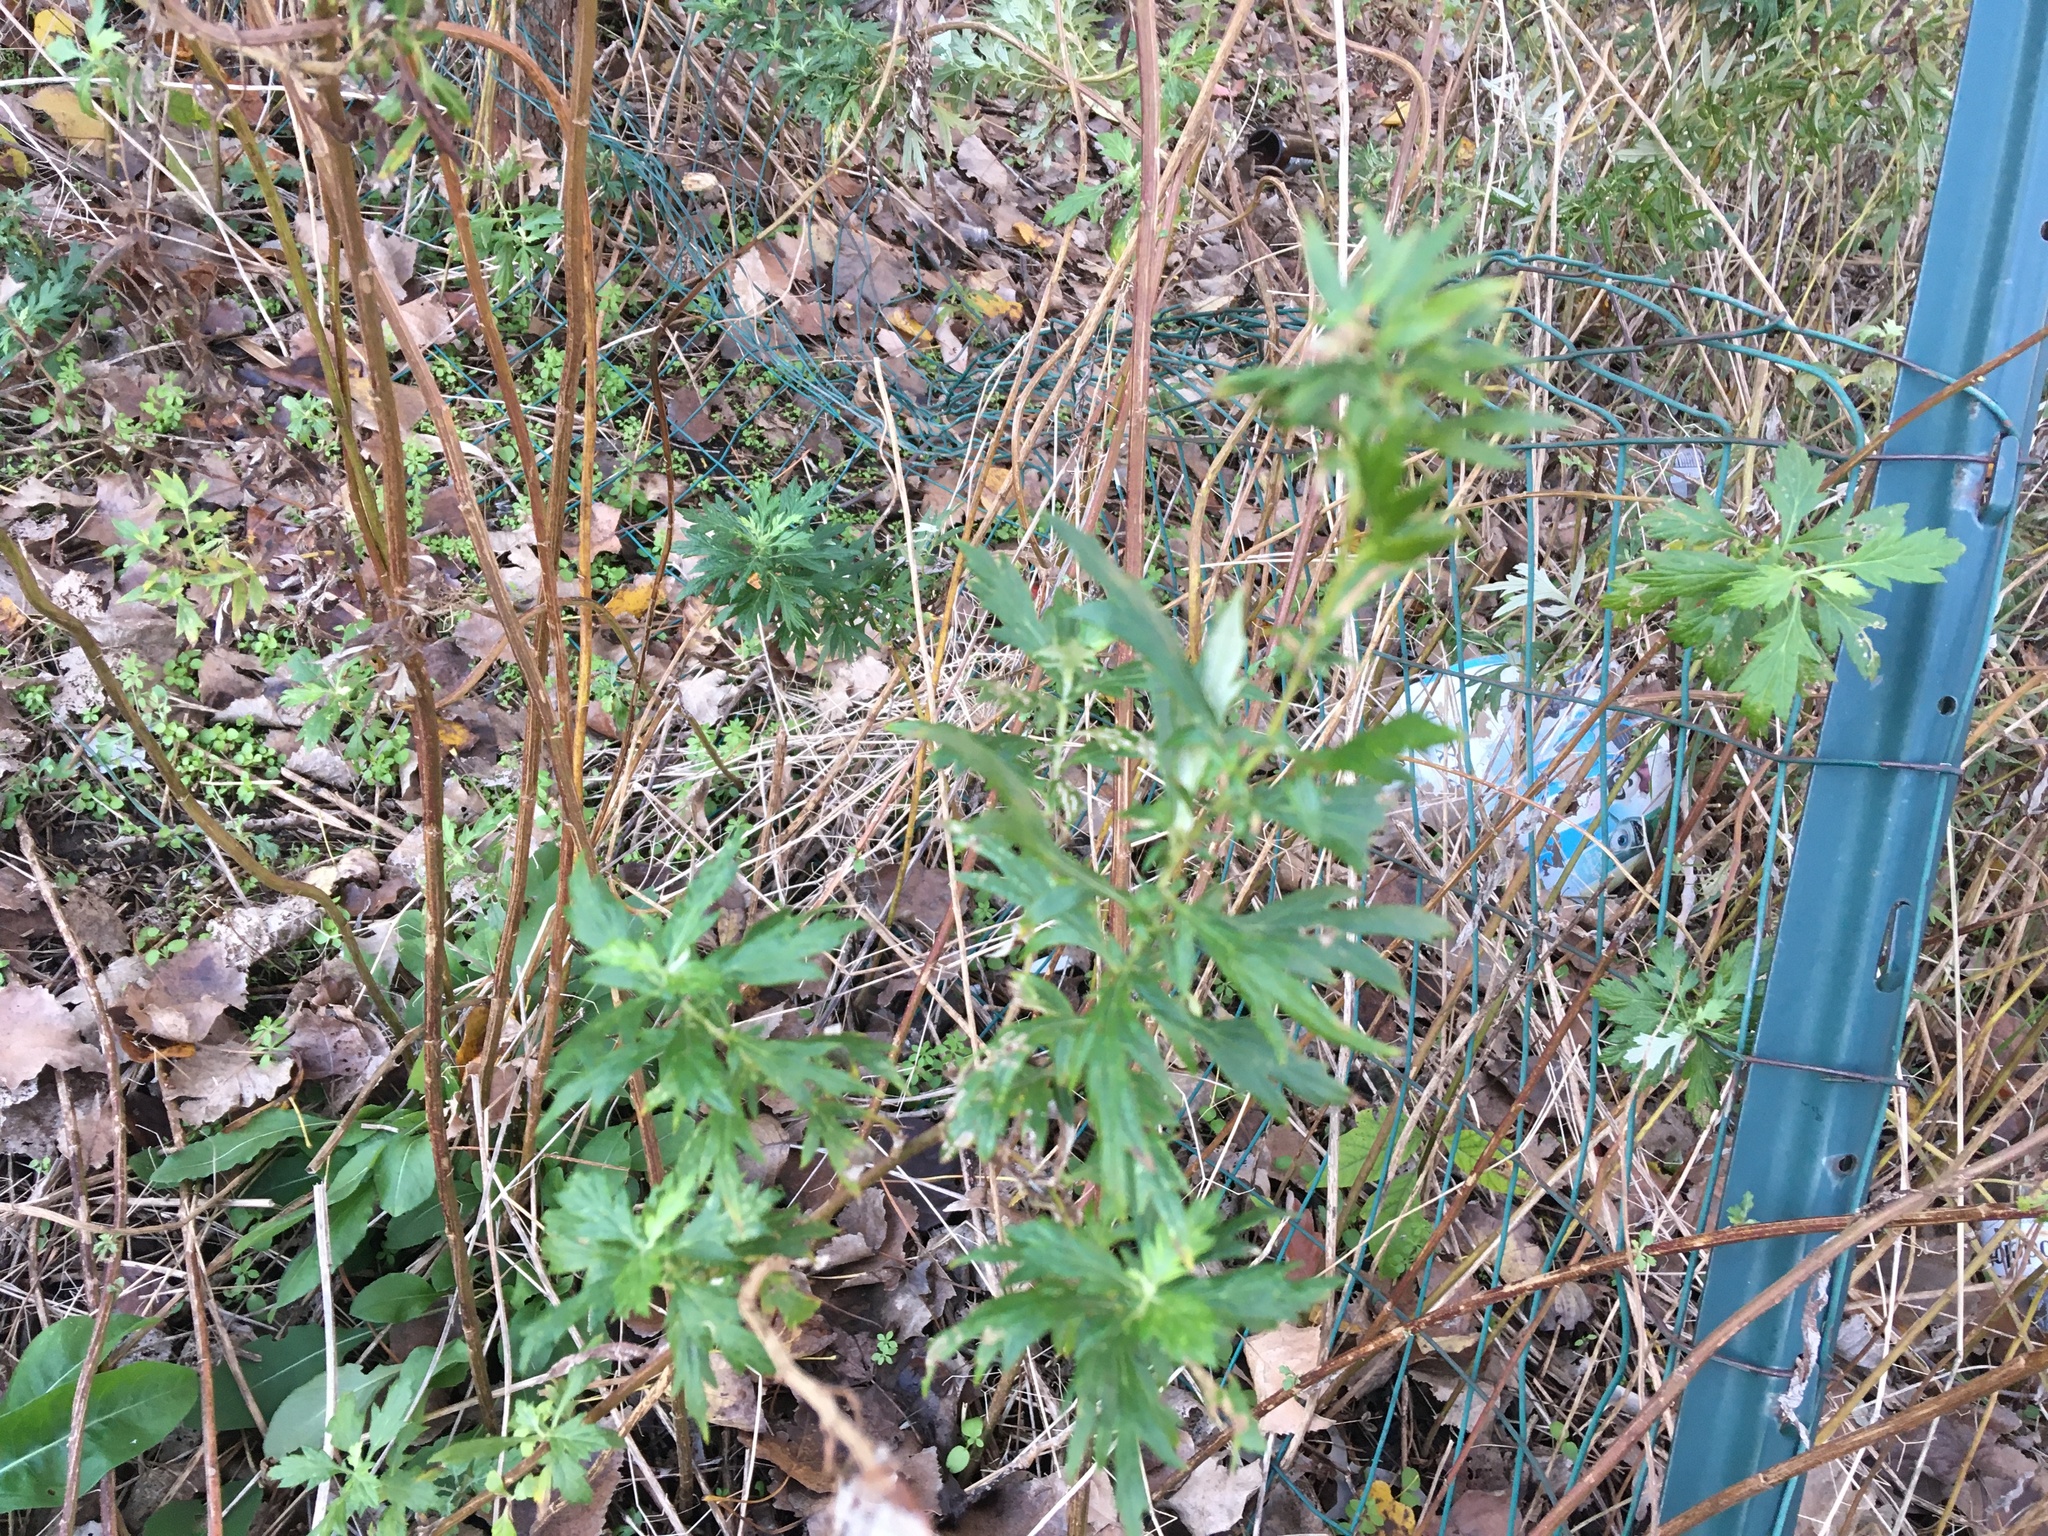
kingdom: Plantae
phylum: Tracheophyta
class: Magnoliopsida
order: Asterales
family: Asteraceae
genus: Artemisia
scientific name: Artemisia vulgaris
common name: Mugwort
